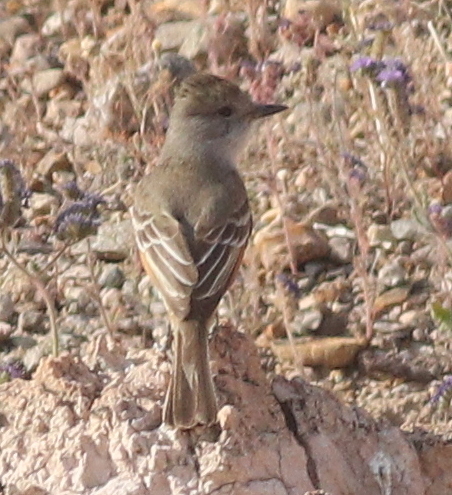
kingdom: Animalia
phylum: Chordata
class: Aves
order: Passeriformes
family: Tyrannidae
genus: Myiarchus
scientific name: Myiarchus cinerascens
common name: Ash-throated flycatcher
